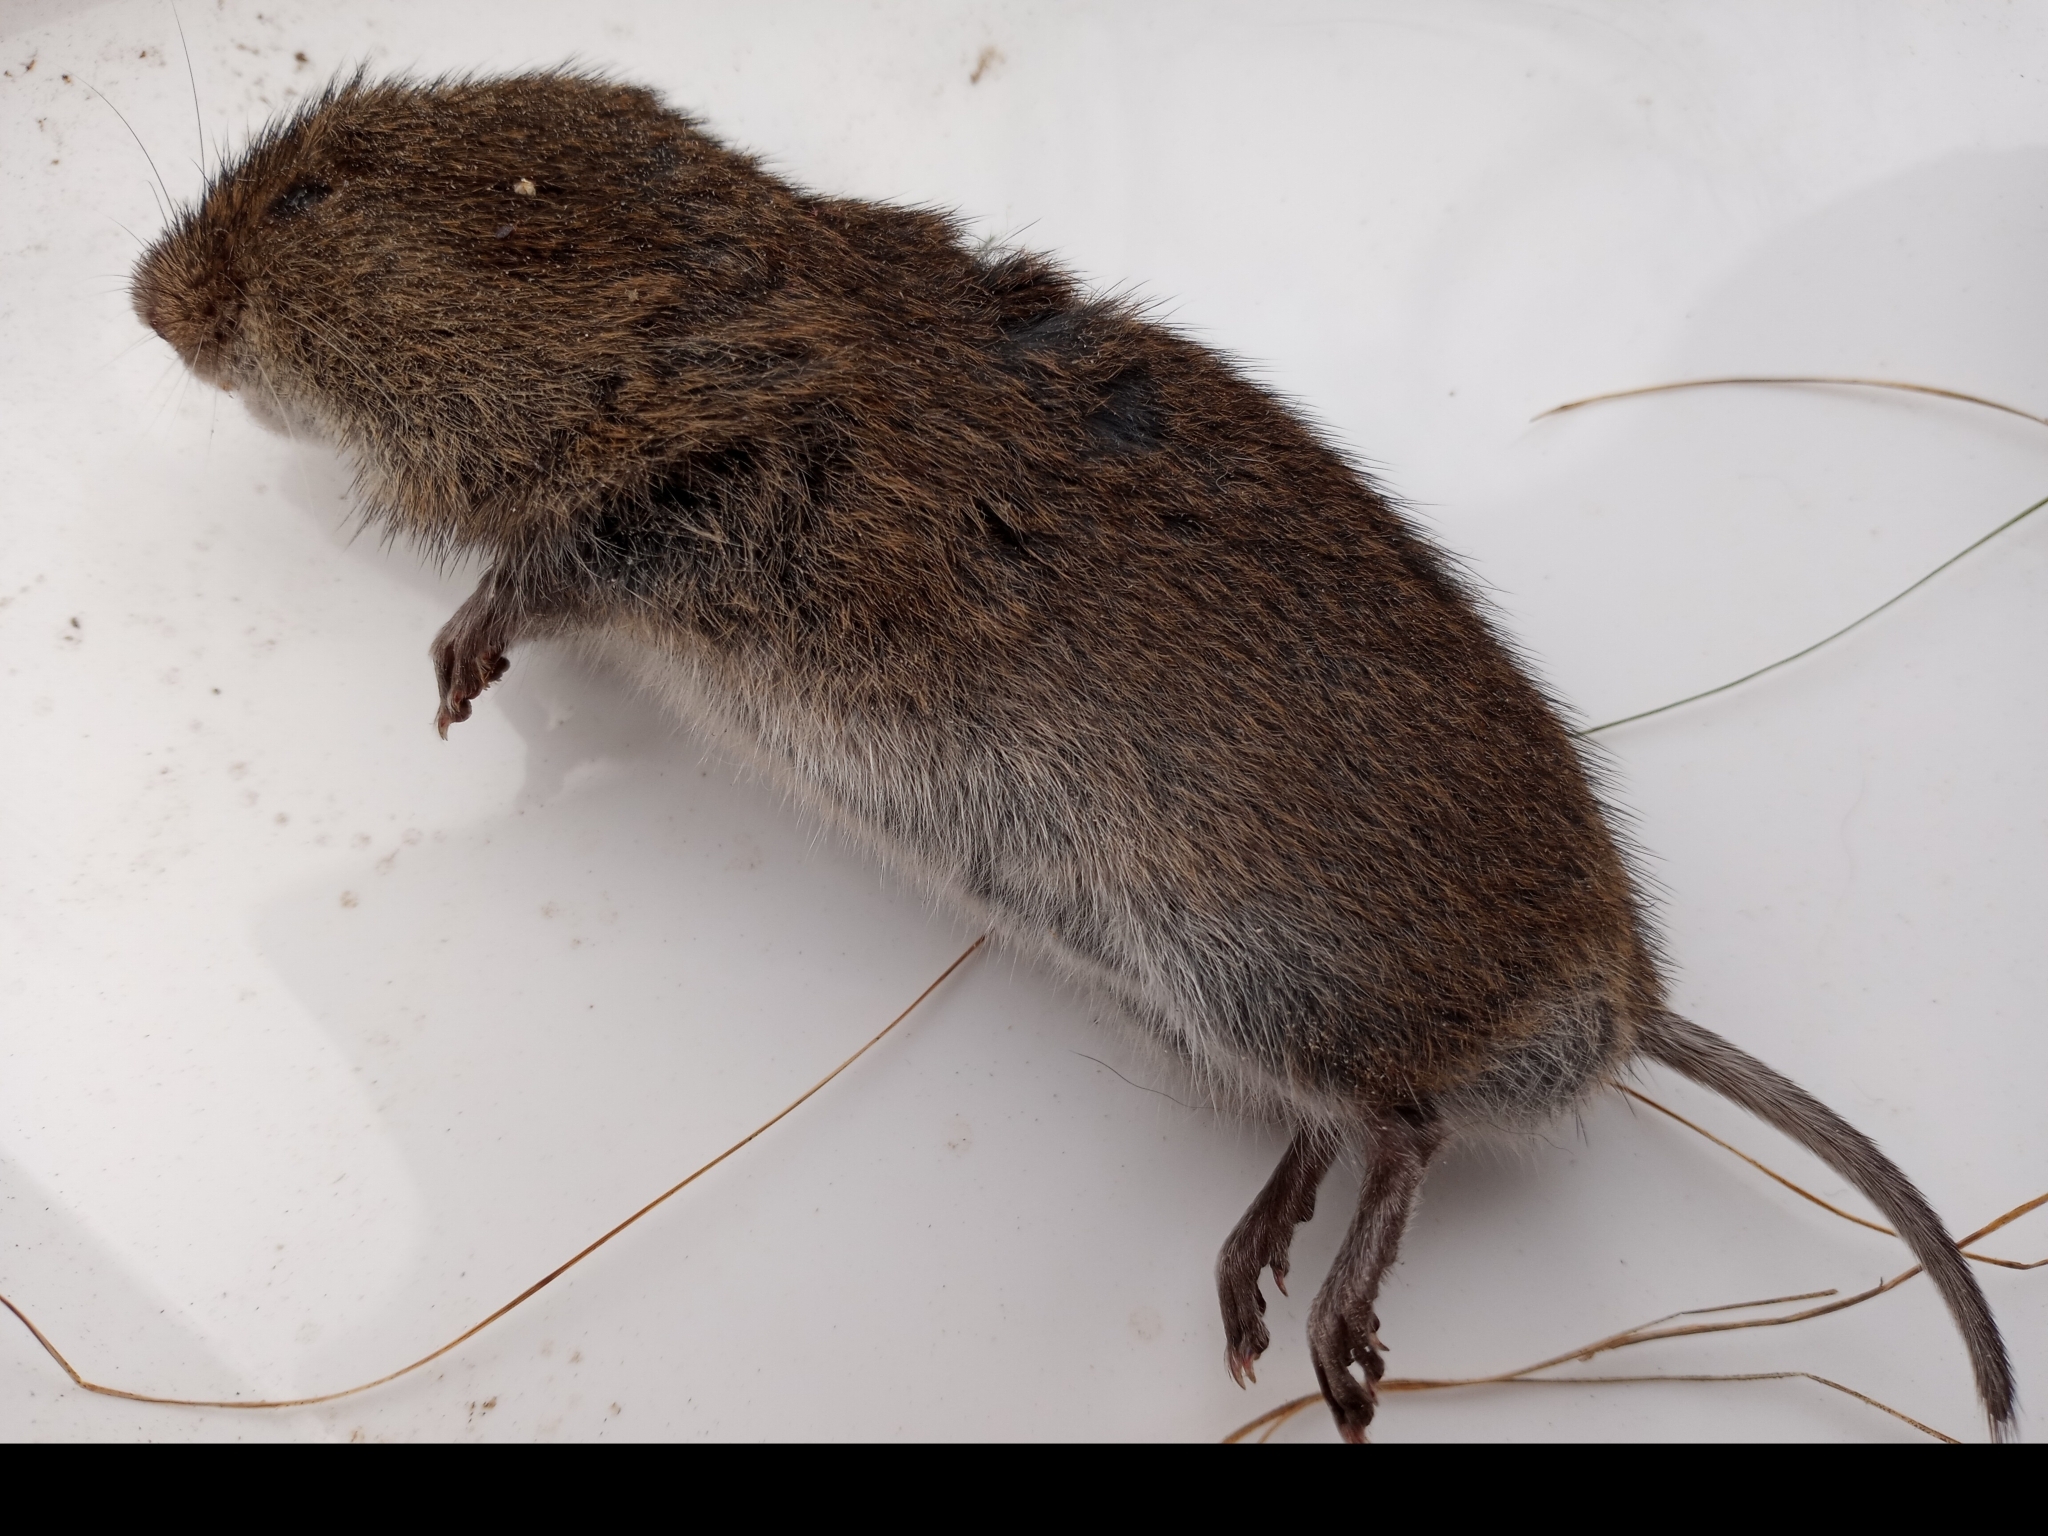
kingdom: Animalia
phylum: Chordata
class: Mammalia
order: Rodentia
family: Cricetidae
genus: Microtus
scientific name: Microtus pennsylvanicus
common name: Meadow vole
